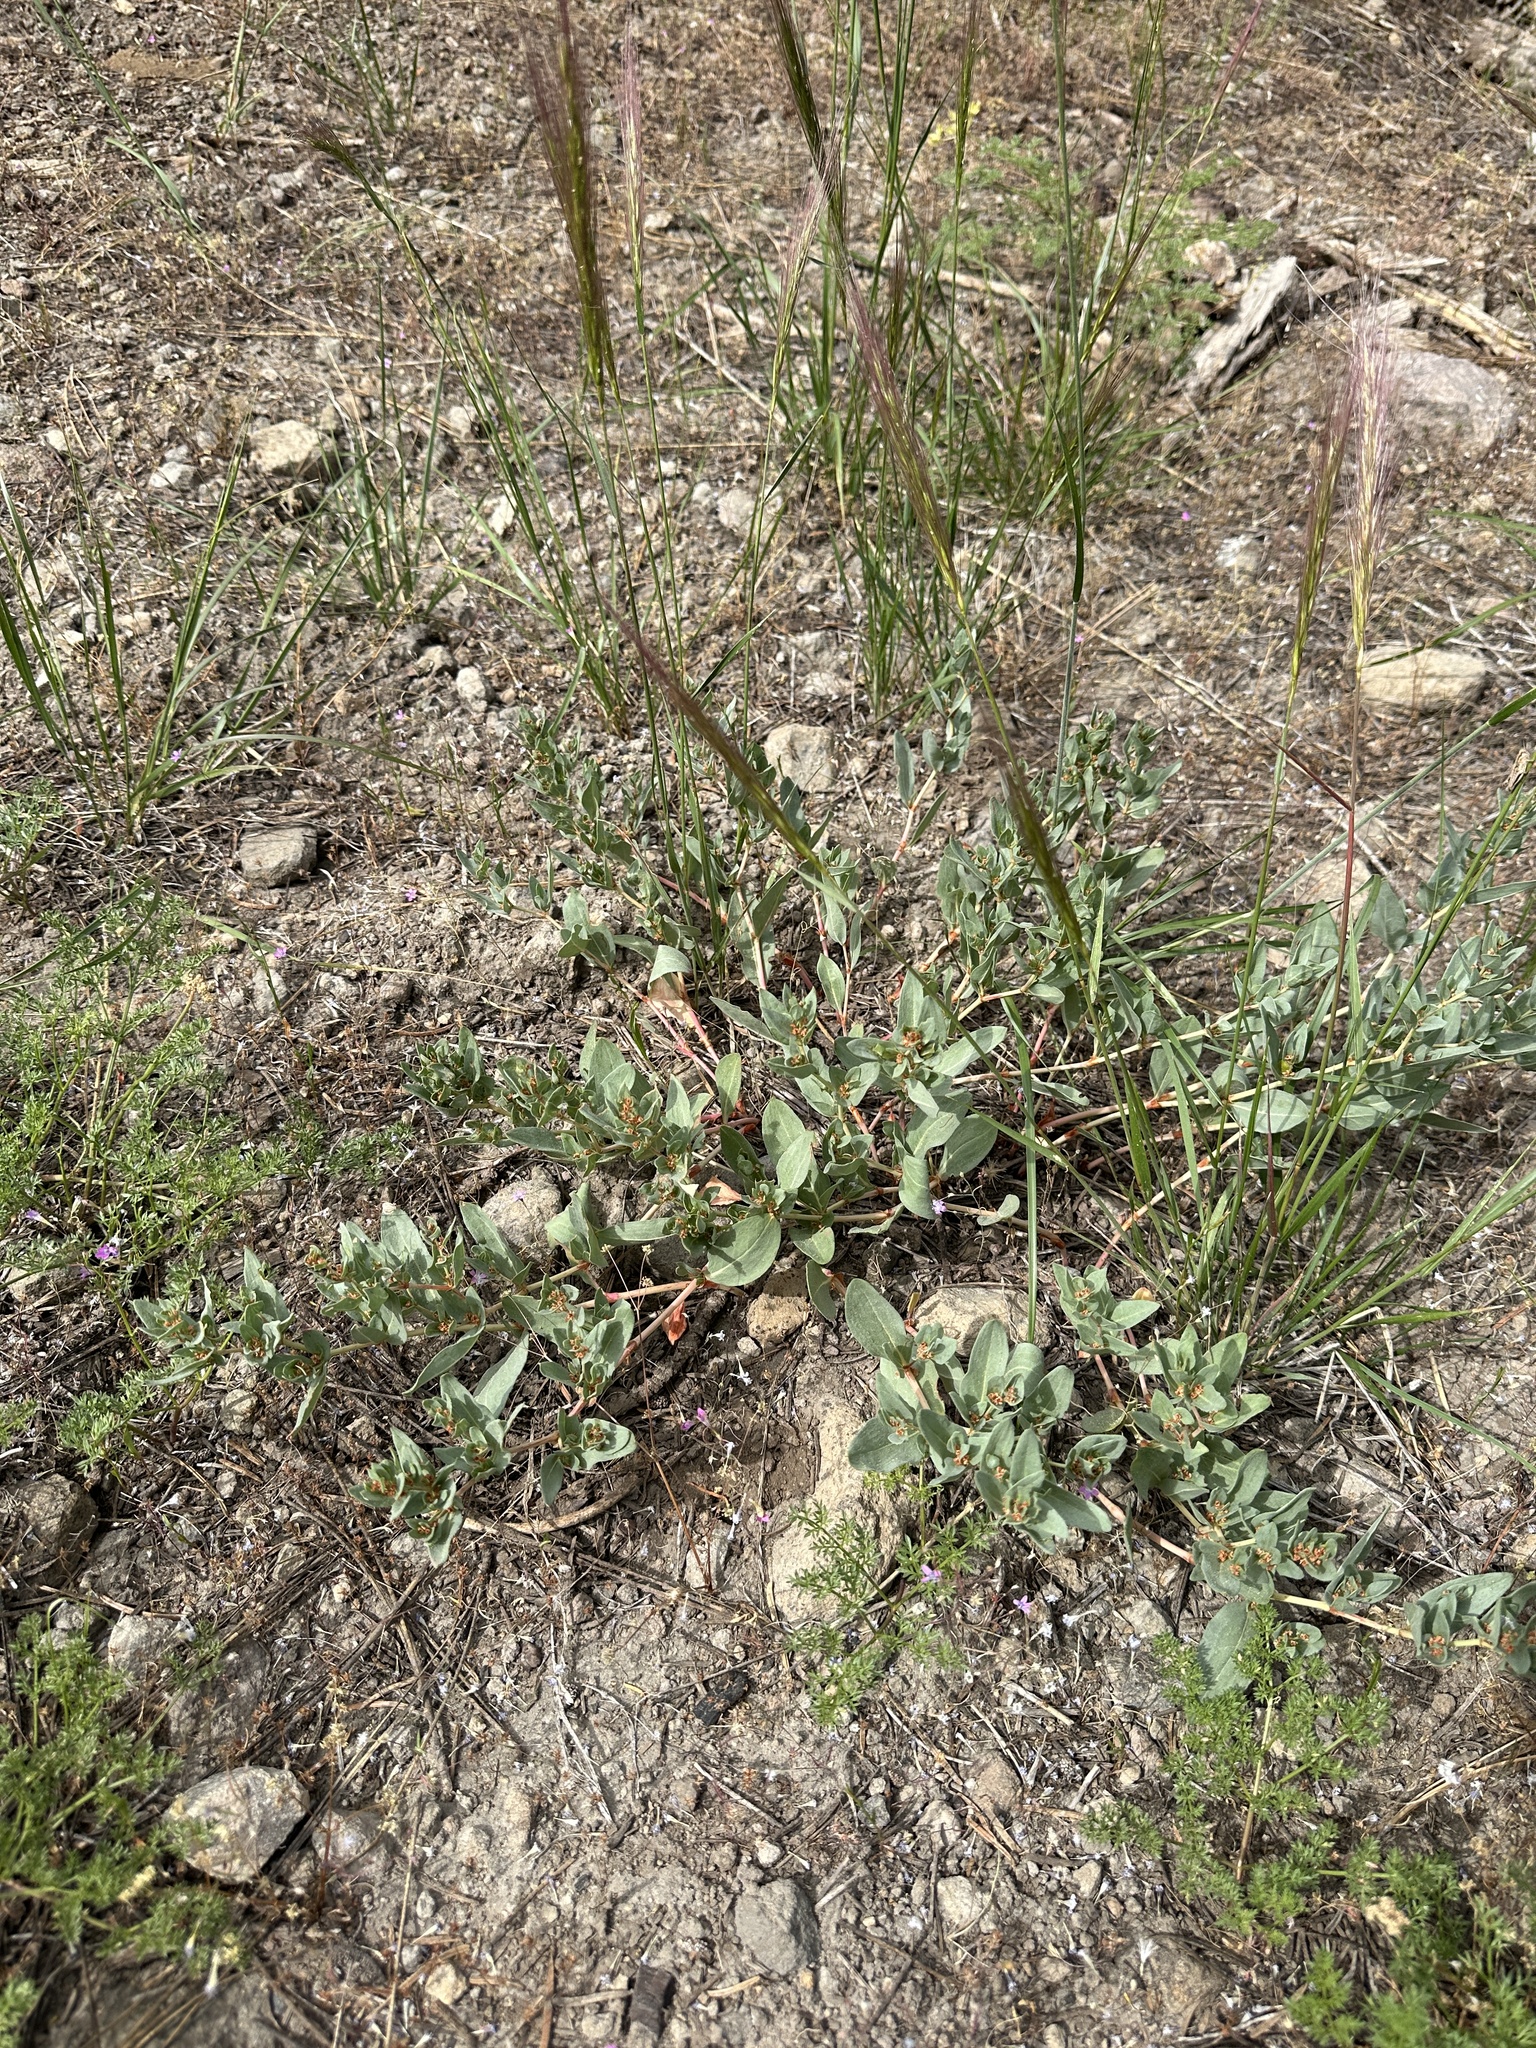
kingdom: Plantae
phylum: Tracheophyta
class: Magnoliopsida
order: Caryophyllales
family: Polygonaceae
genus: Koenigia
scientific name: Koenigia davisiae
